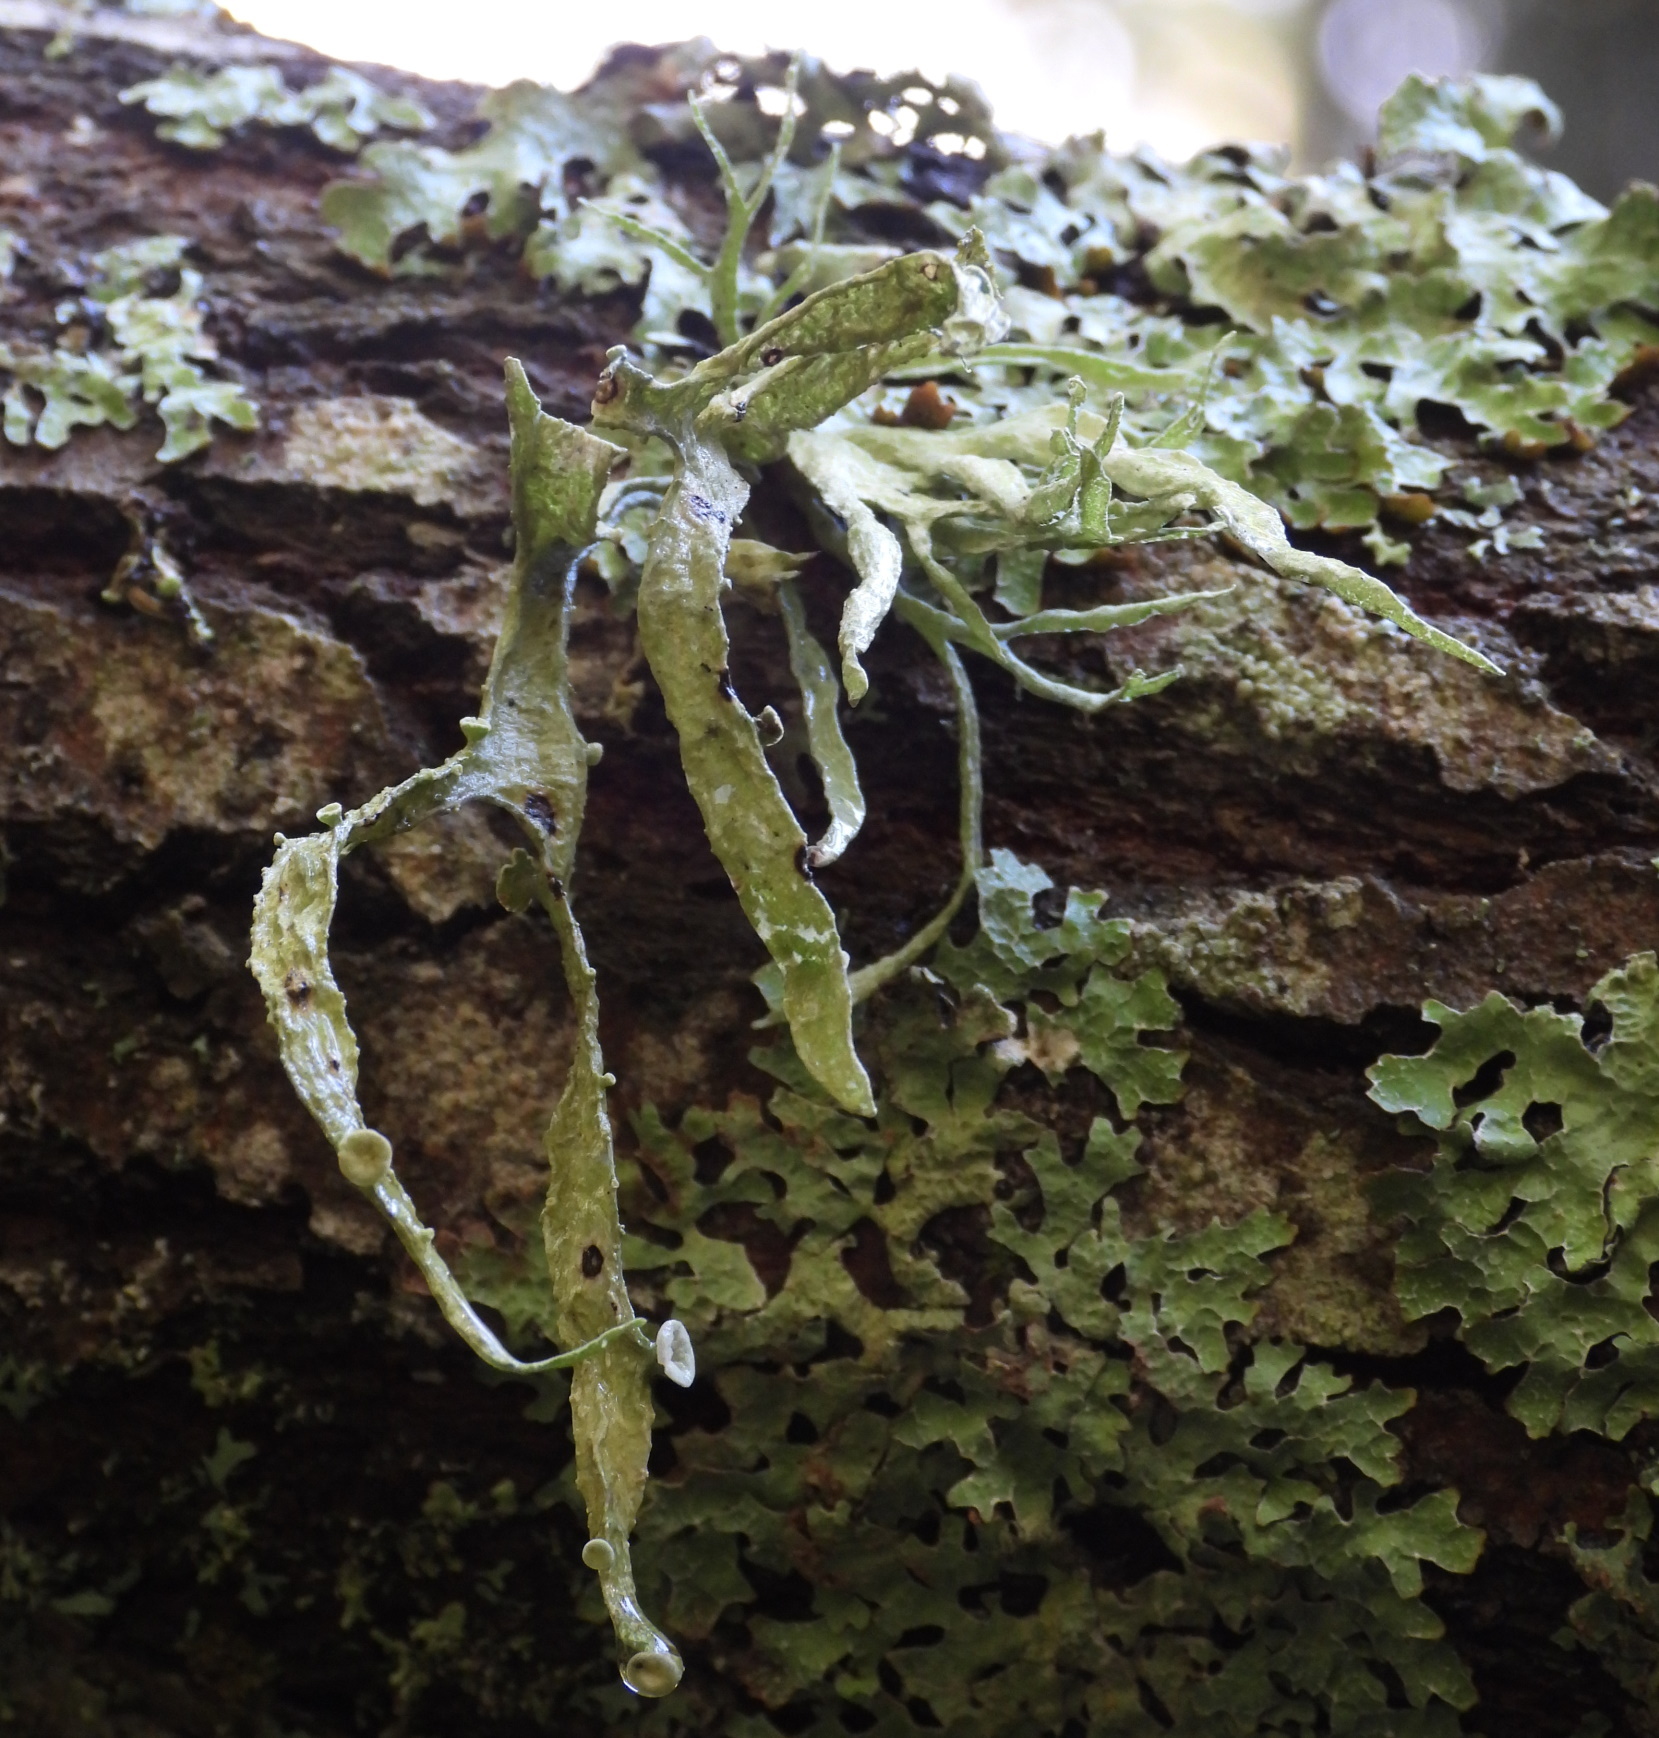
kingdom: Fungi
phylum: Ascomycota
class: Lecanoromycetes
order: Lecanorales
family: Ramalinaceae
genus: Ramalina
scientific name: Ramalina fraxinea
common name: Cartilage lichen
